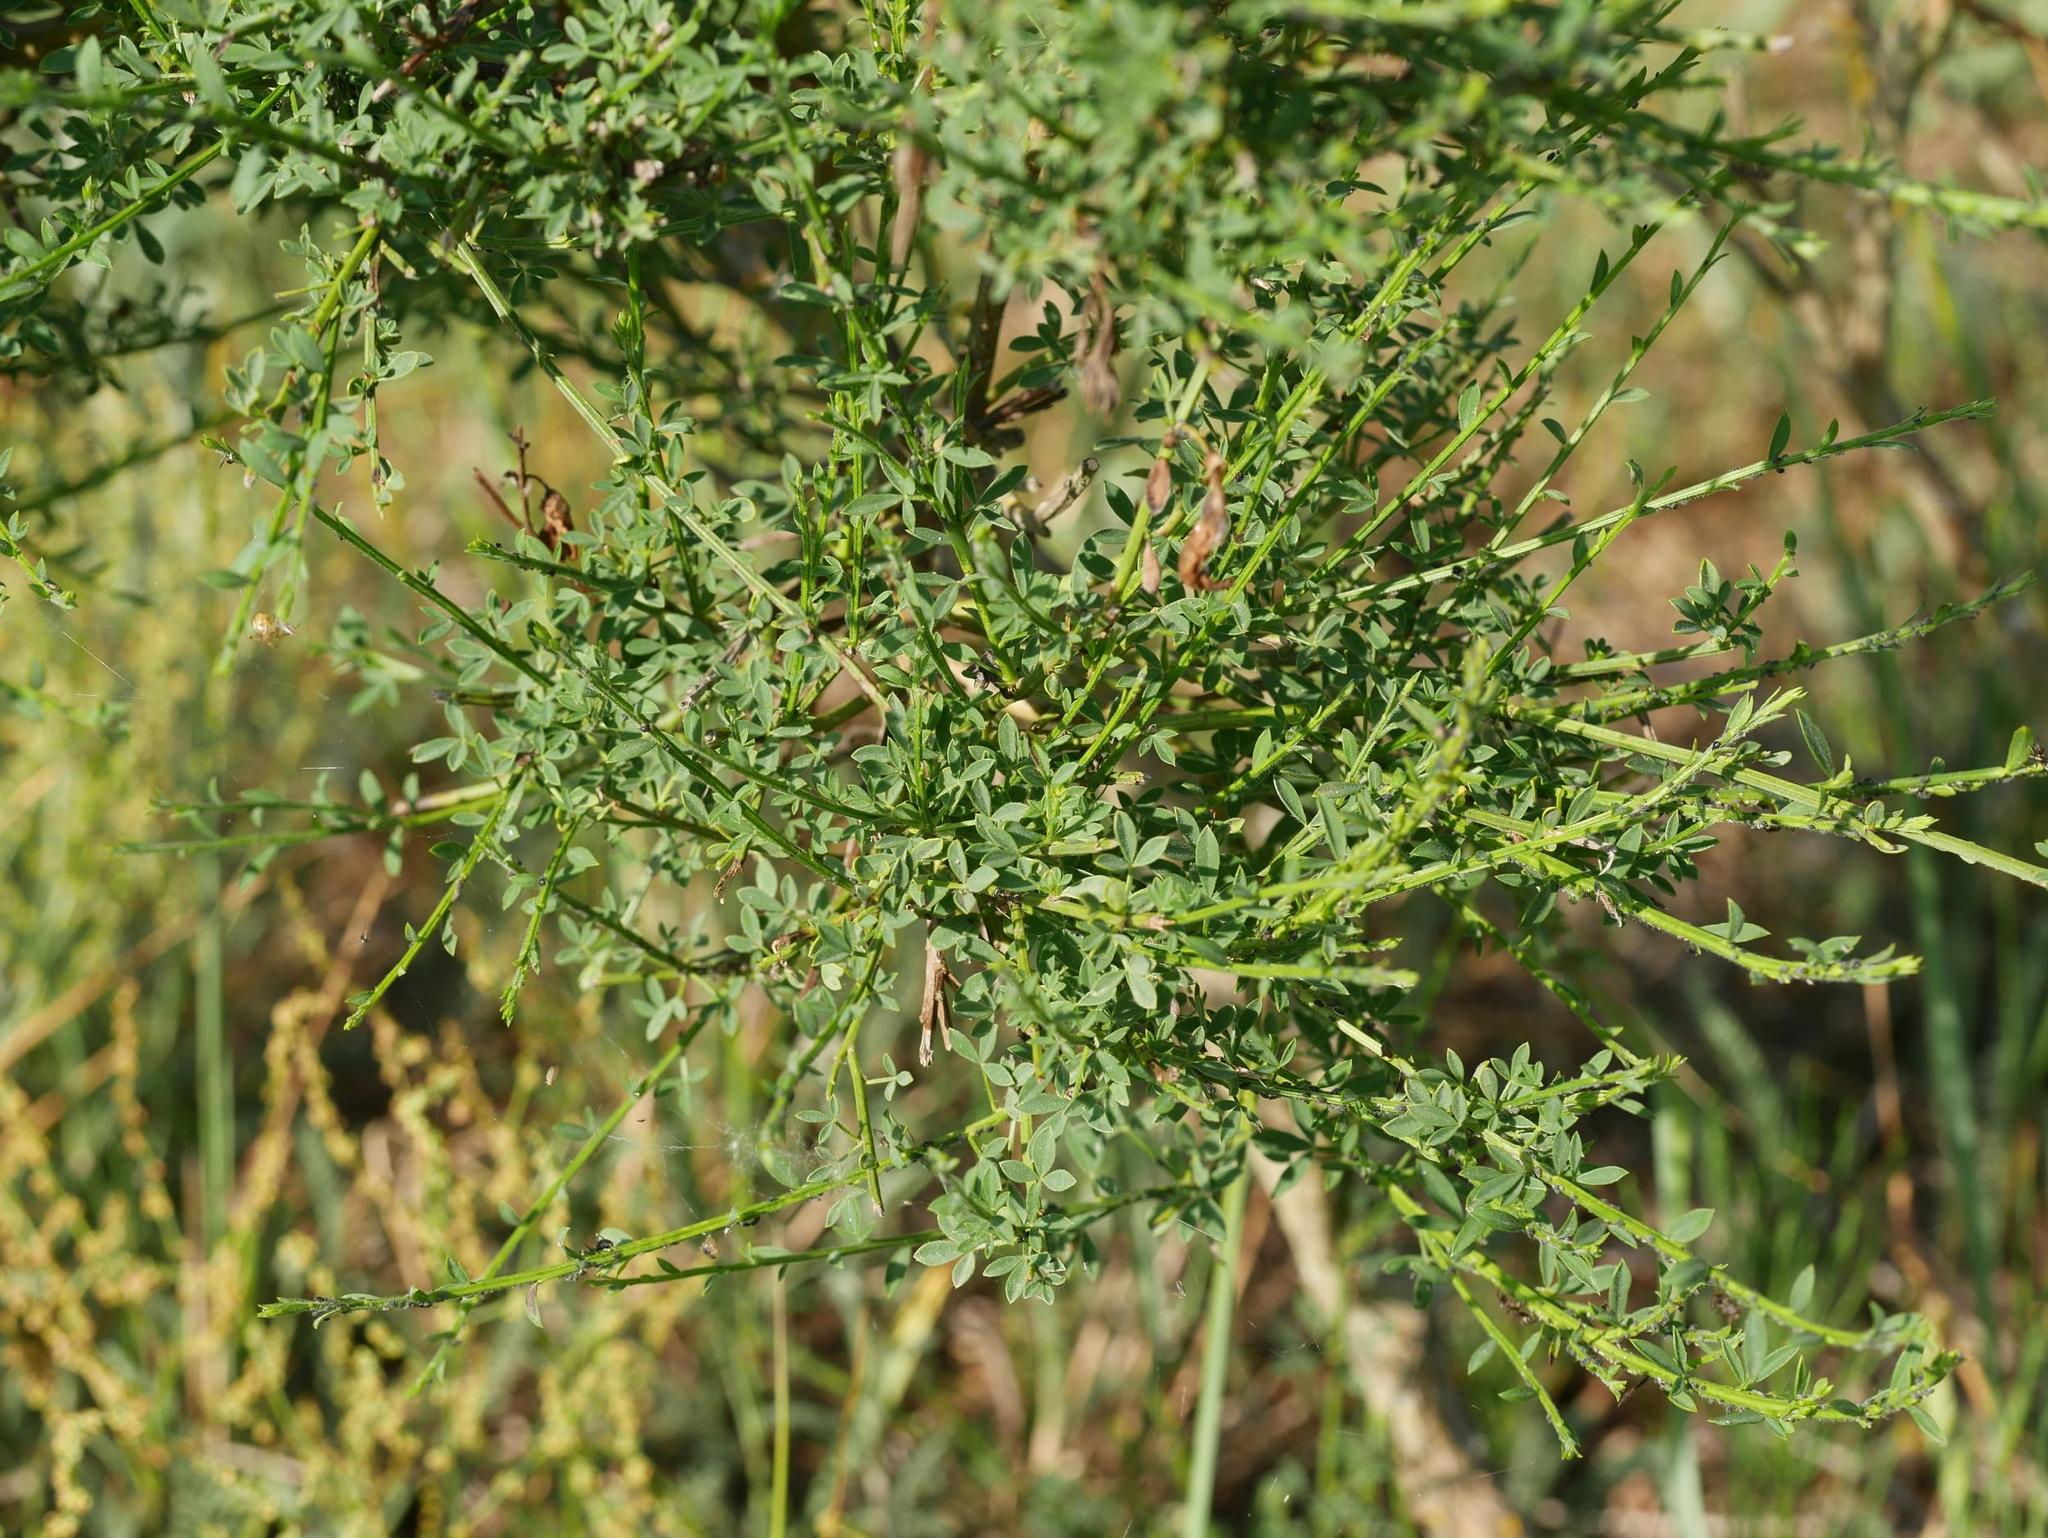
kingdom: Plantae
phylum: Tracheophyta
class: Magnoliopsida
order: Fabales
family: Fabaceae
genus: Cytisus
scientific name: Cytisus scoparius
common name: Scotch broom
